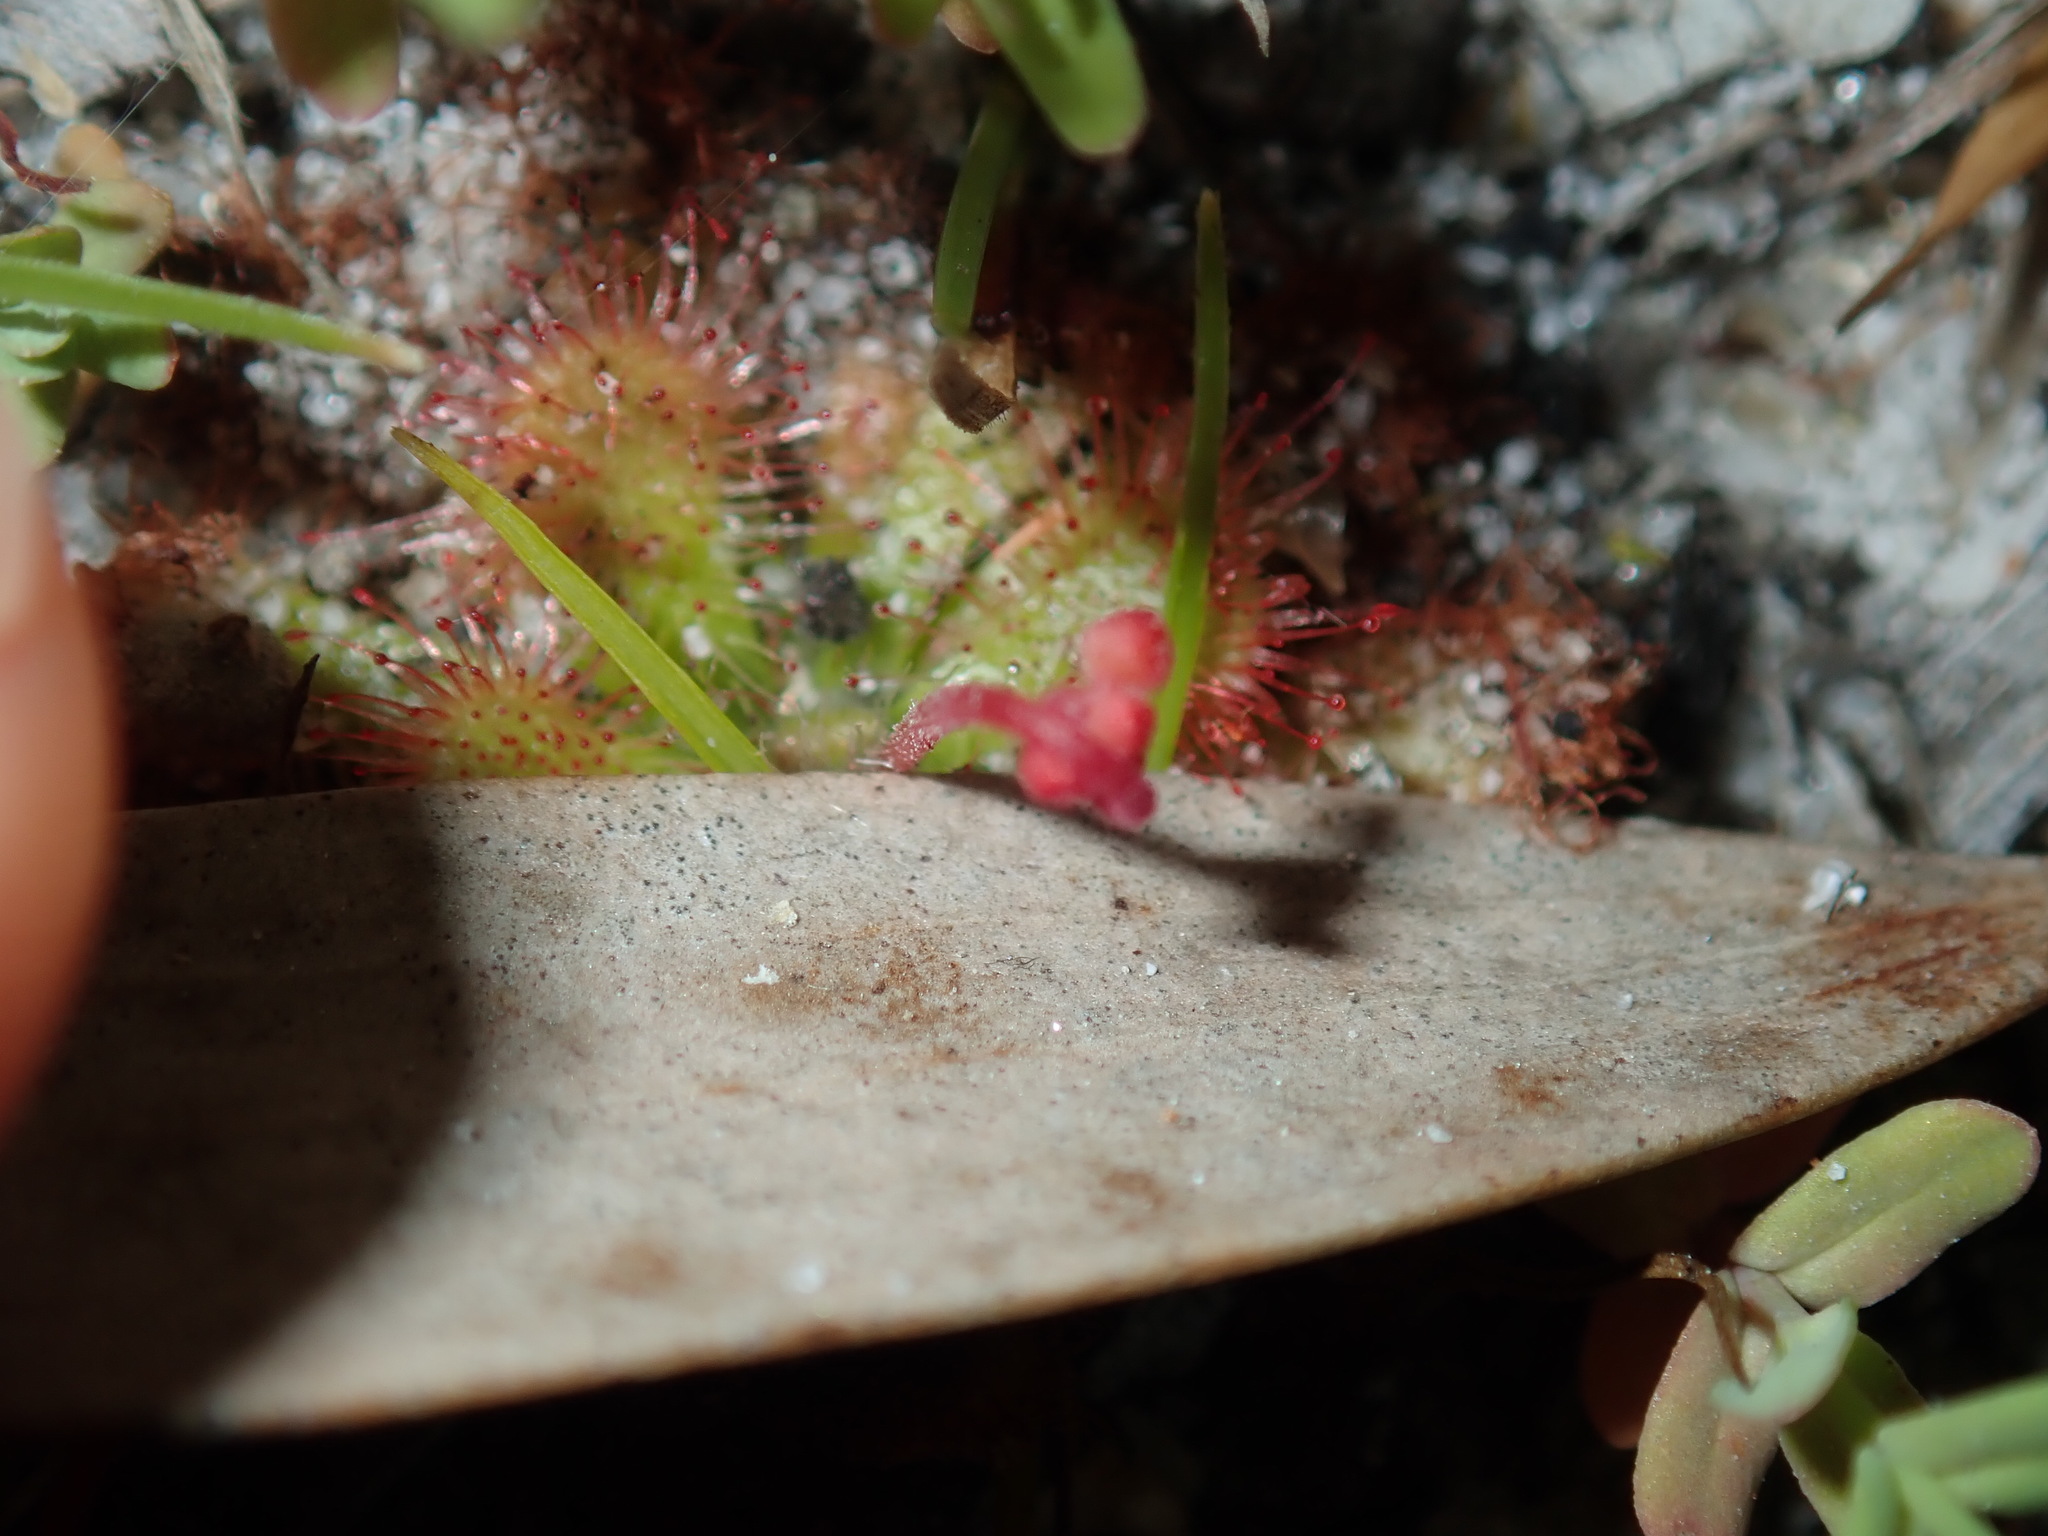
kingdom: Plantae
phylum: Tracheophyta
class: Magnoliopsida
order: Caryophyllales
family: Droseraceae
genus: Drosera
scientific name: Drosera spatulata
